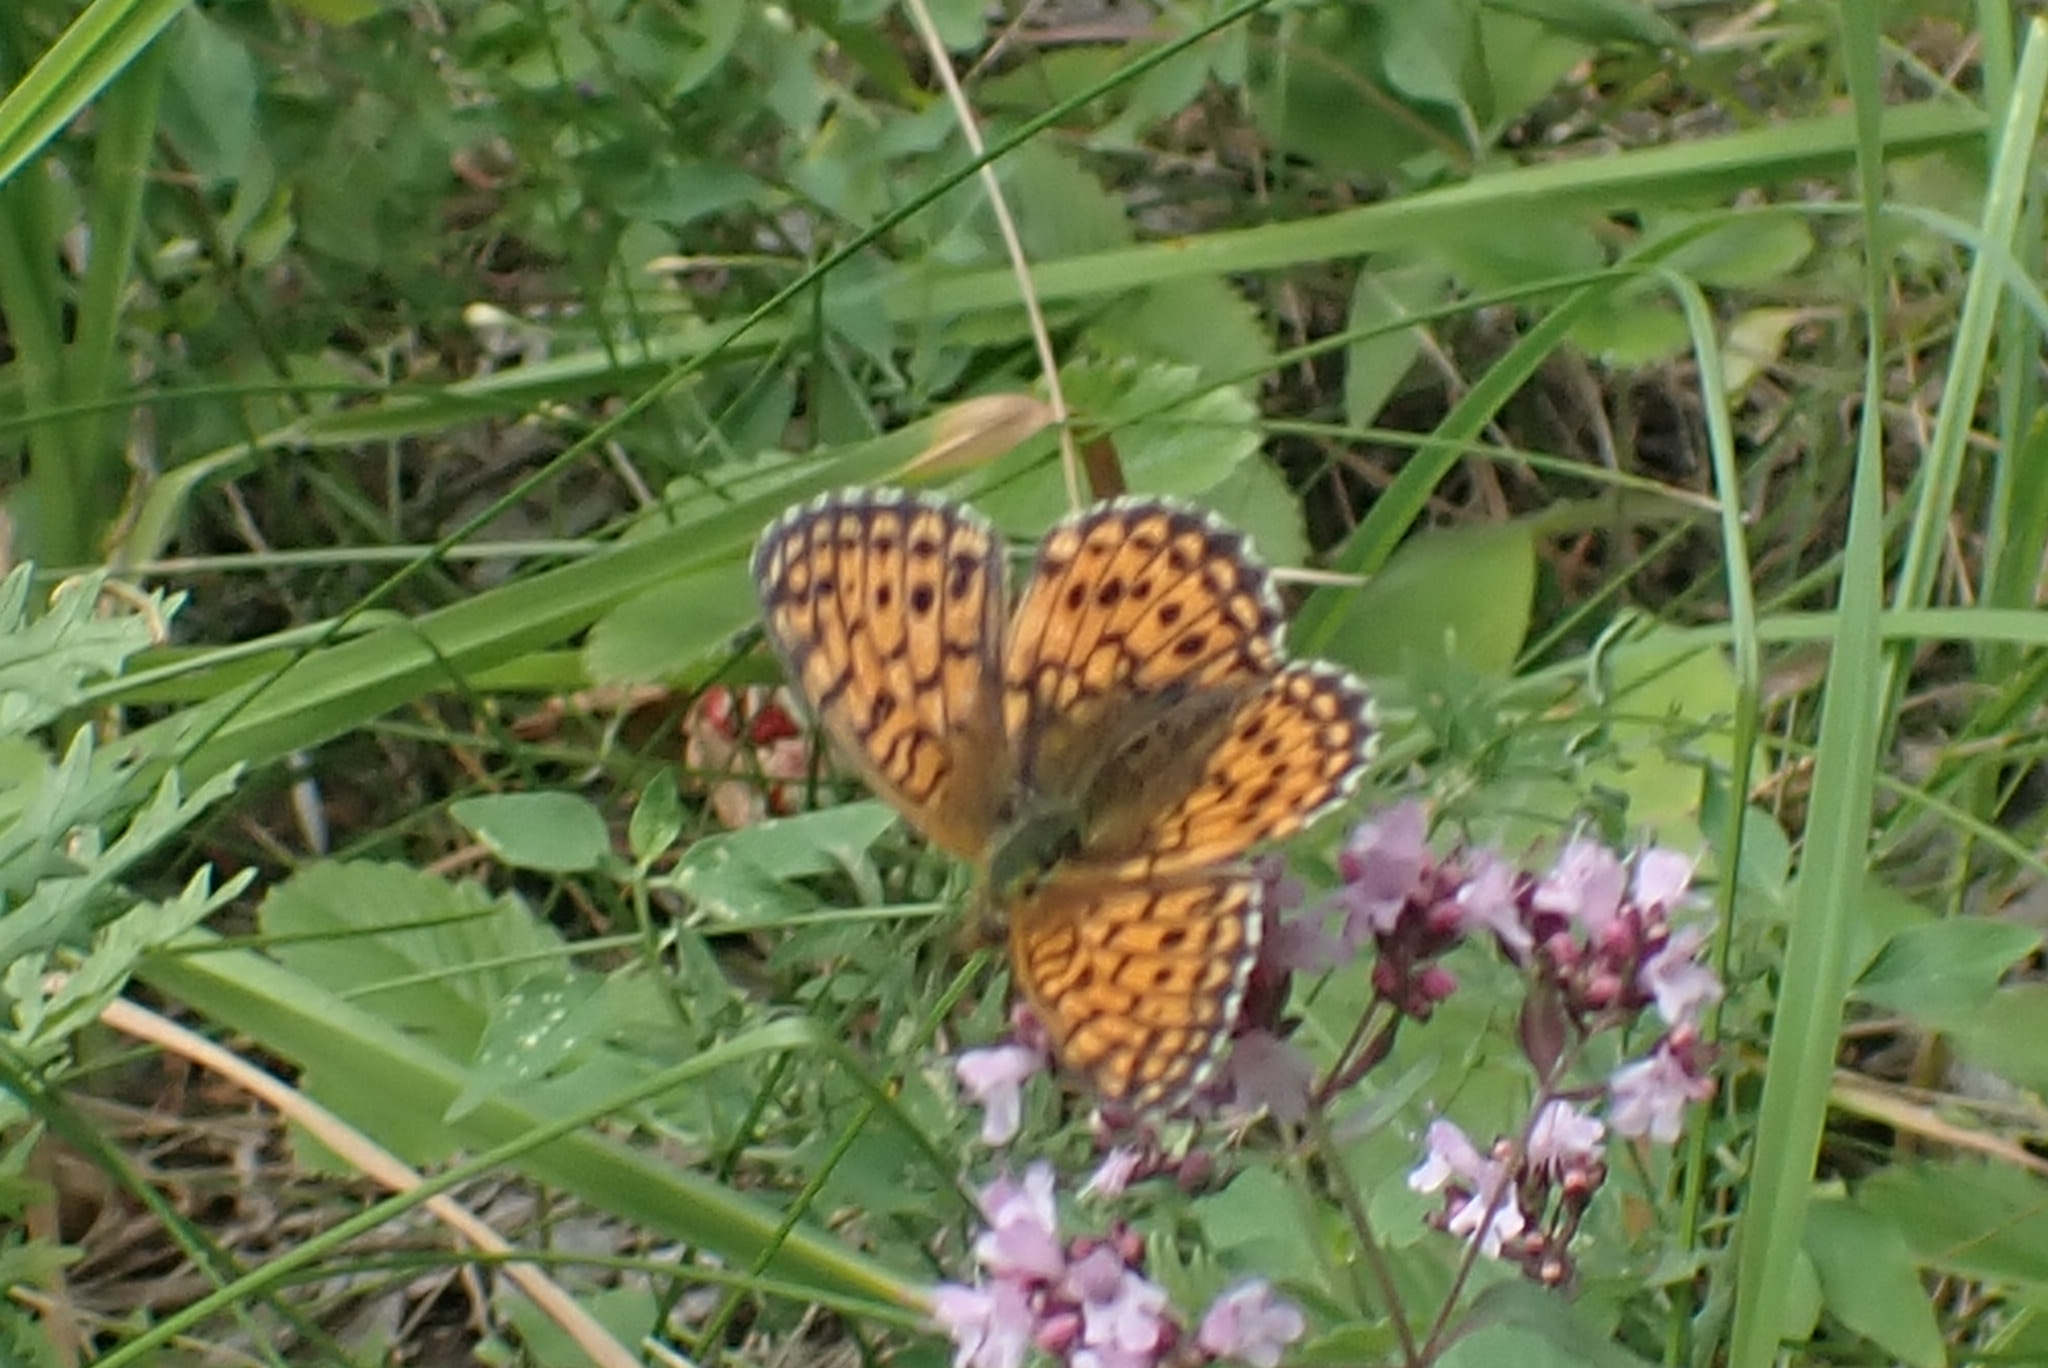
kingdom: Animalia
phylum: Arthropoda
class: Insecta
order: Lepidoptera
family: Nymphalidae
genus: Brenthis
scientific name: Brenthis ino
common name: Lesser marbled fritillary
